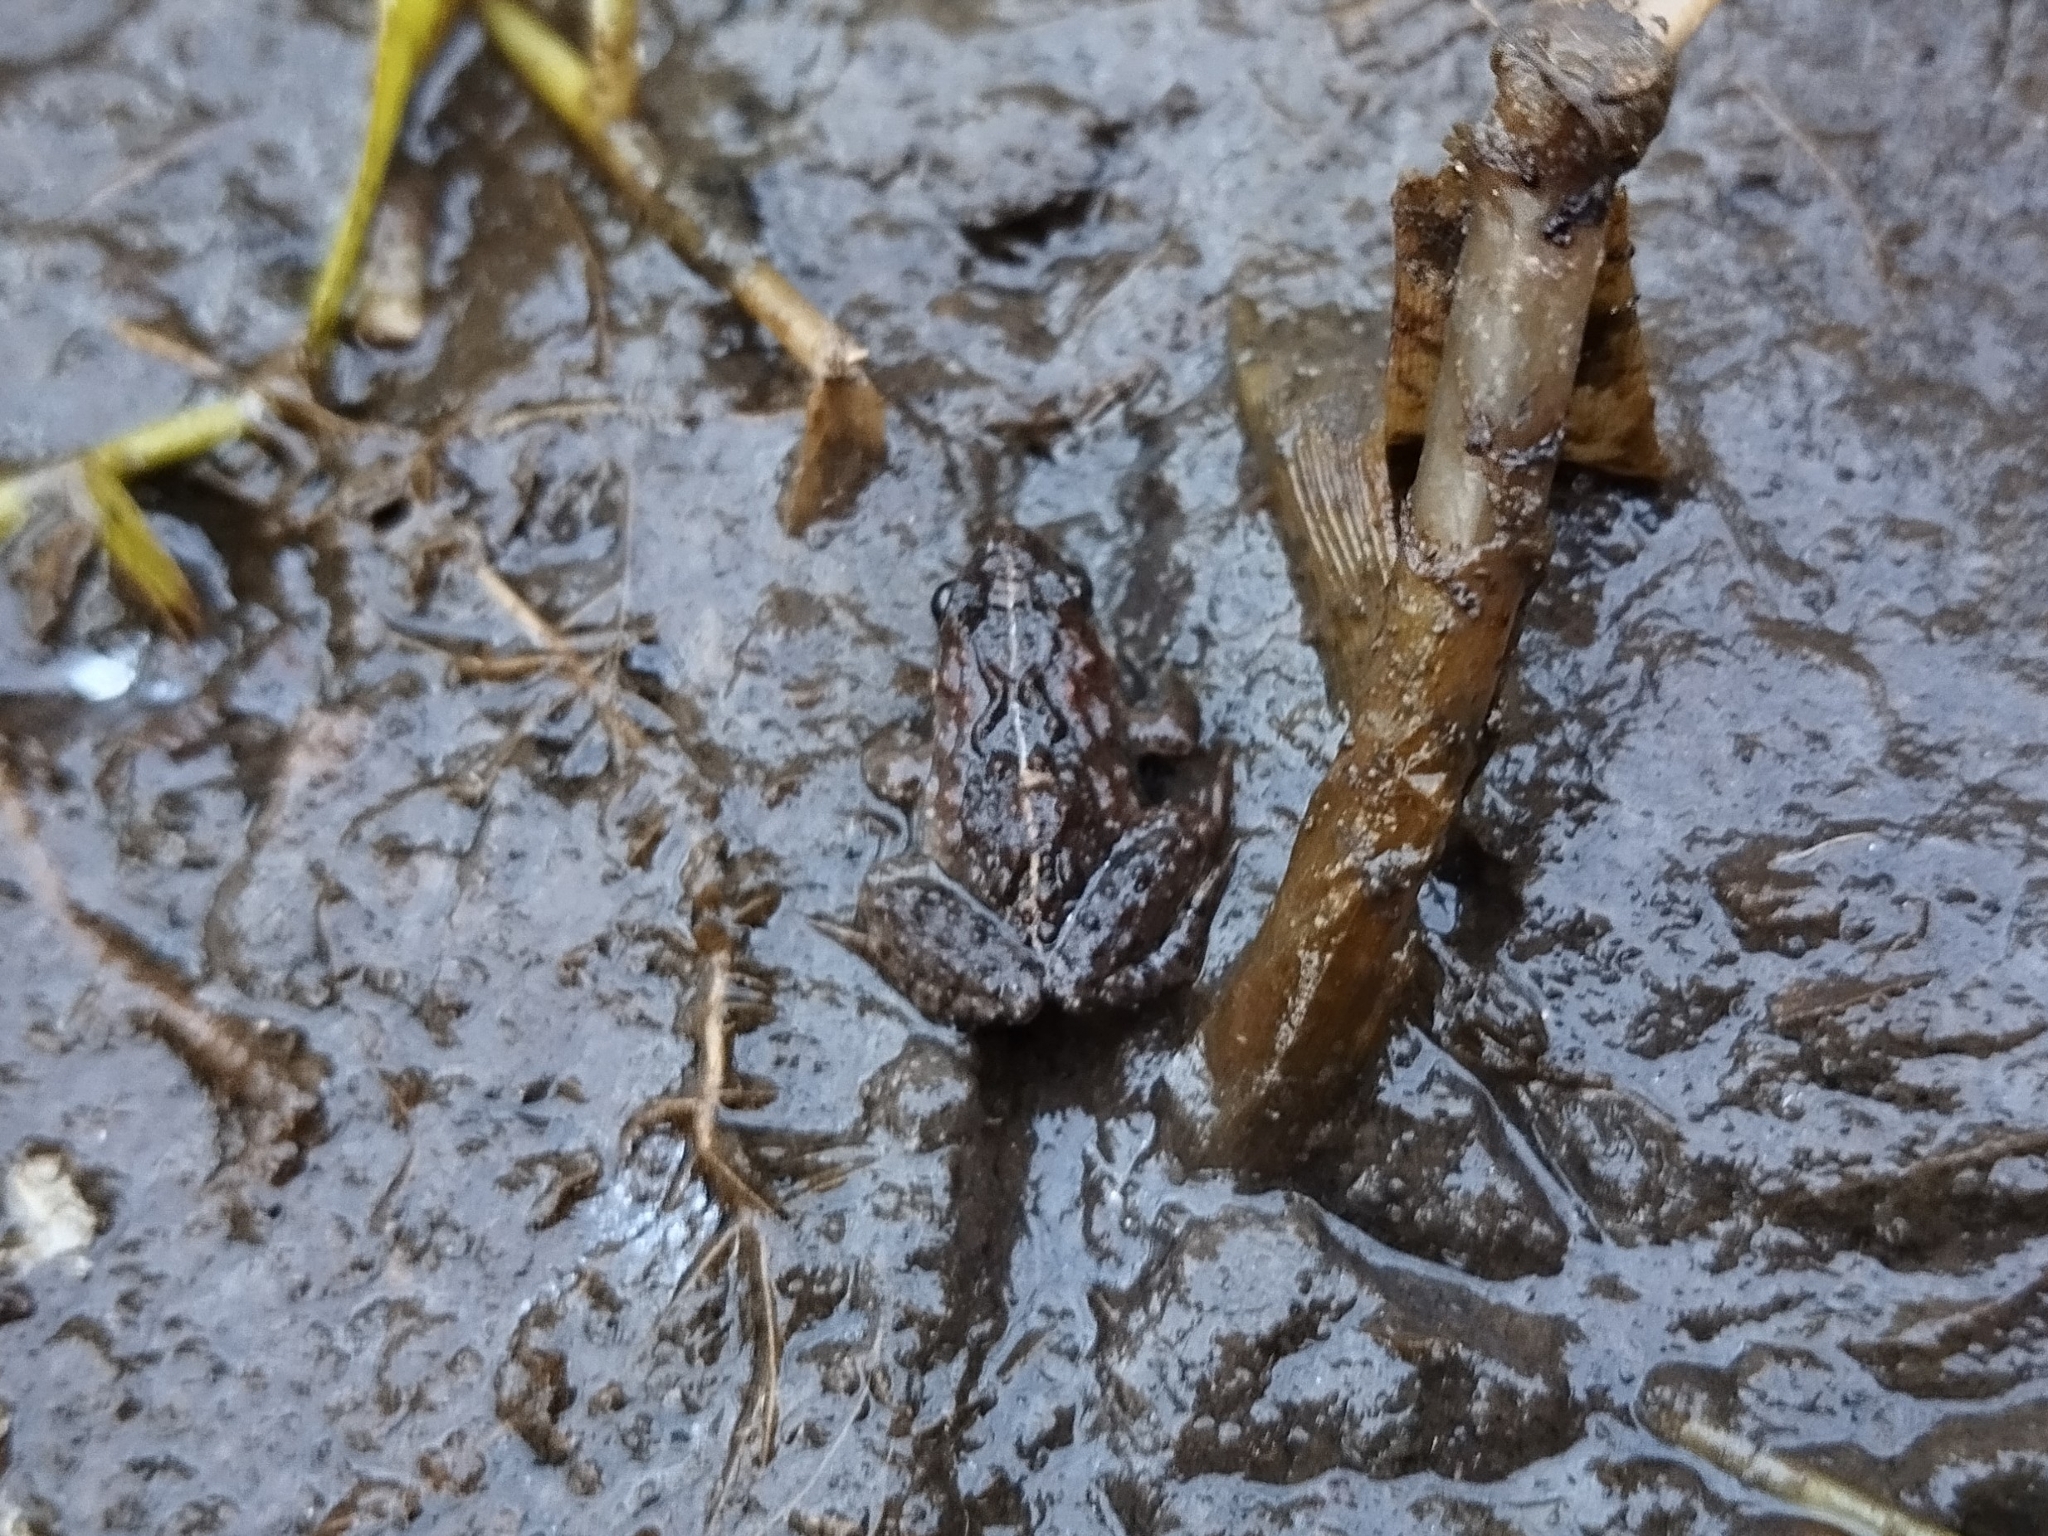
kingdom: Animalia
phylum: Chordata
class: Amphibia
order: Anura
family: Leptodactylidae
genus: Pseudopaludicola
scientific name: Pseudopaludicola restinga
